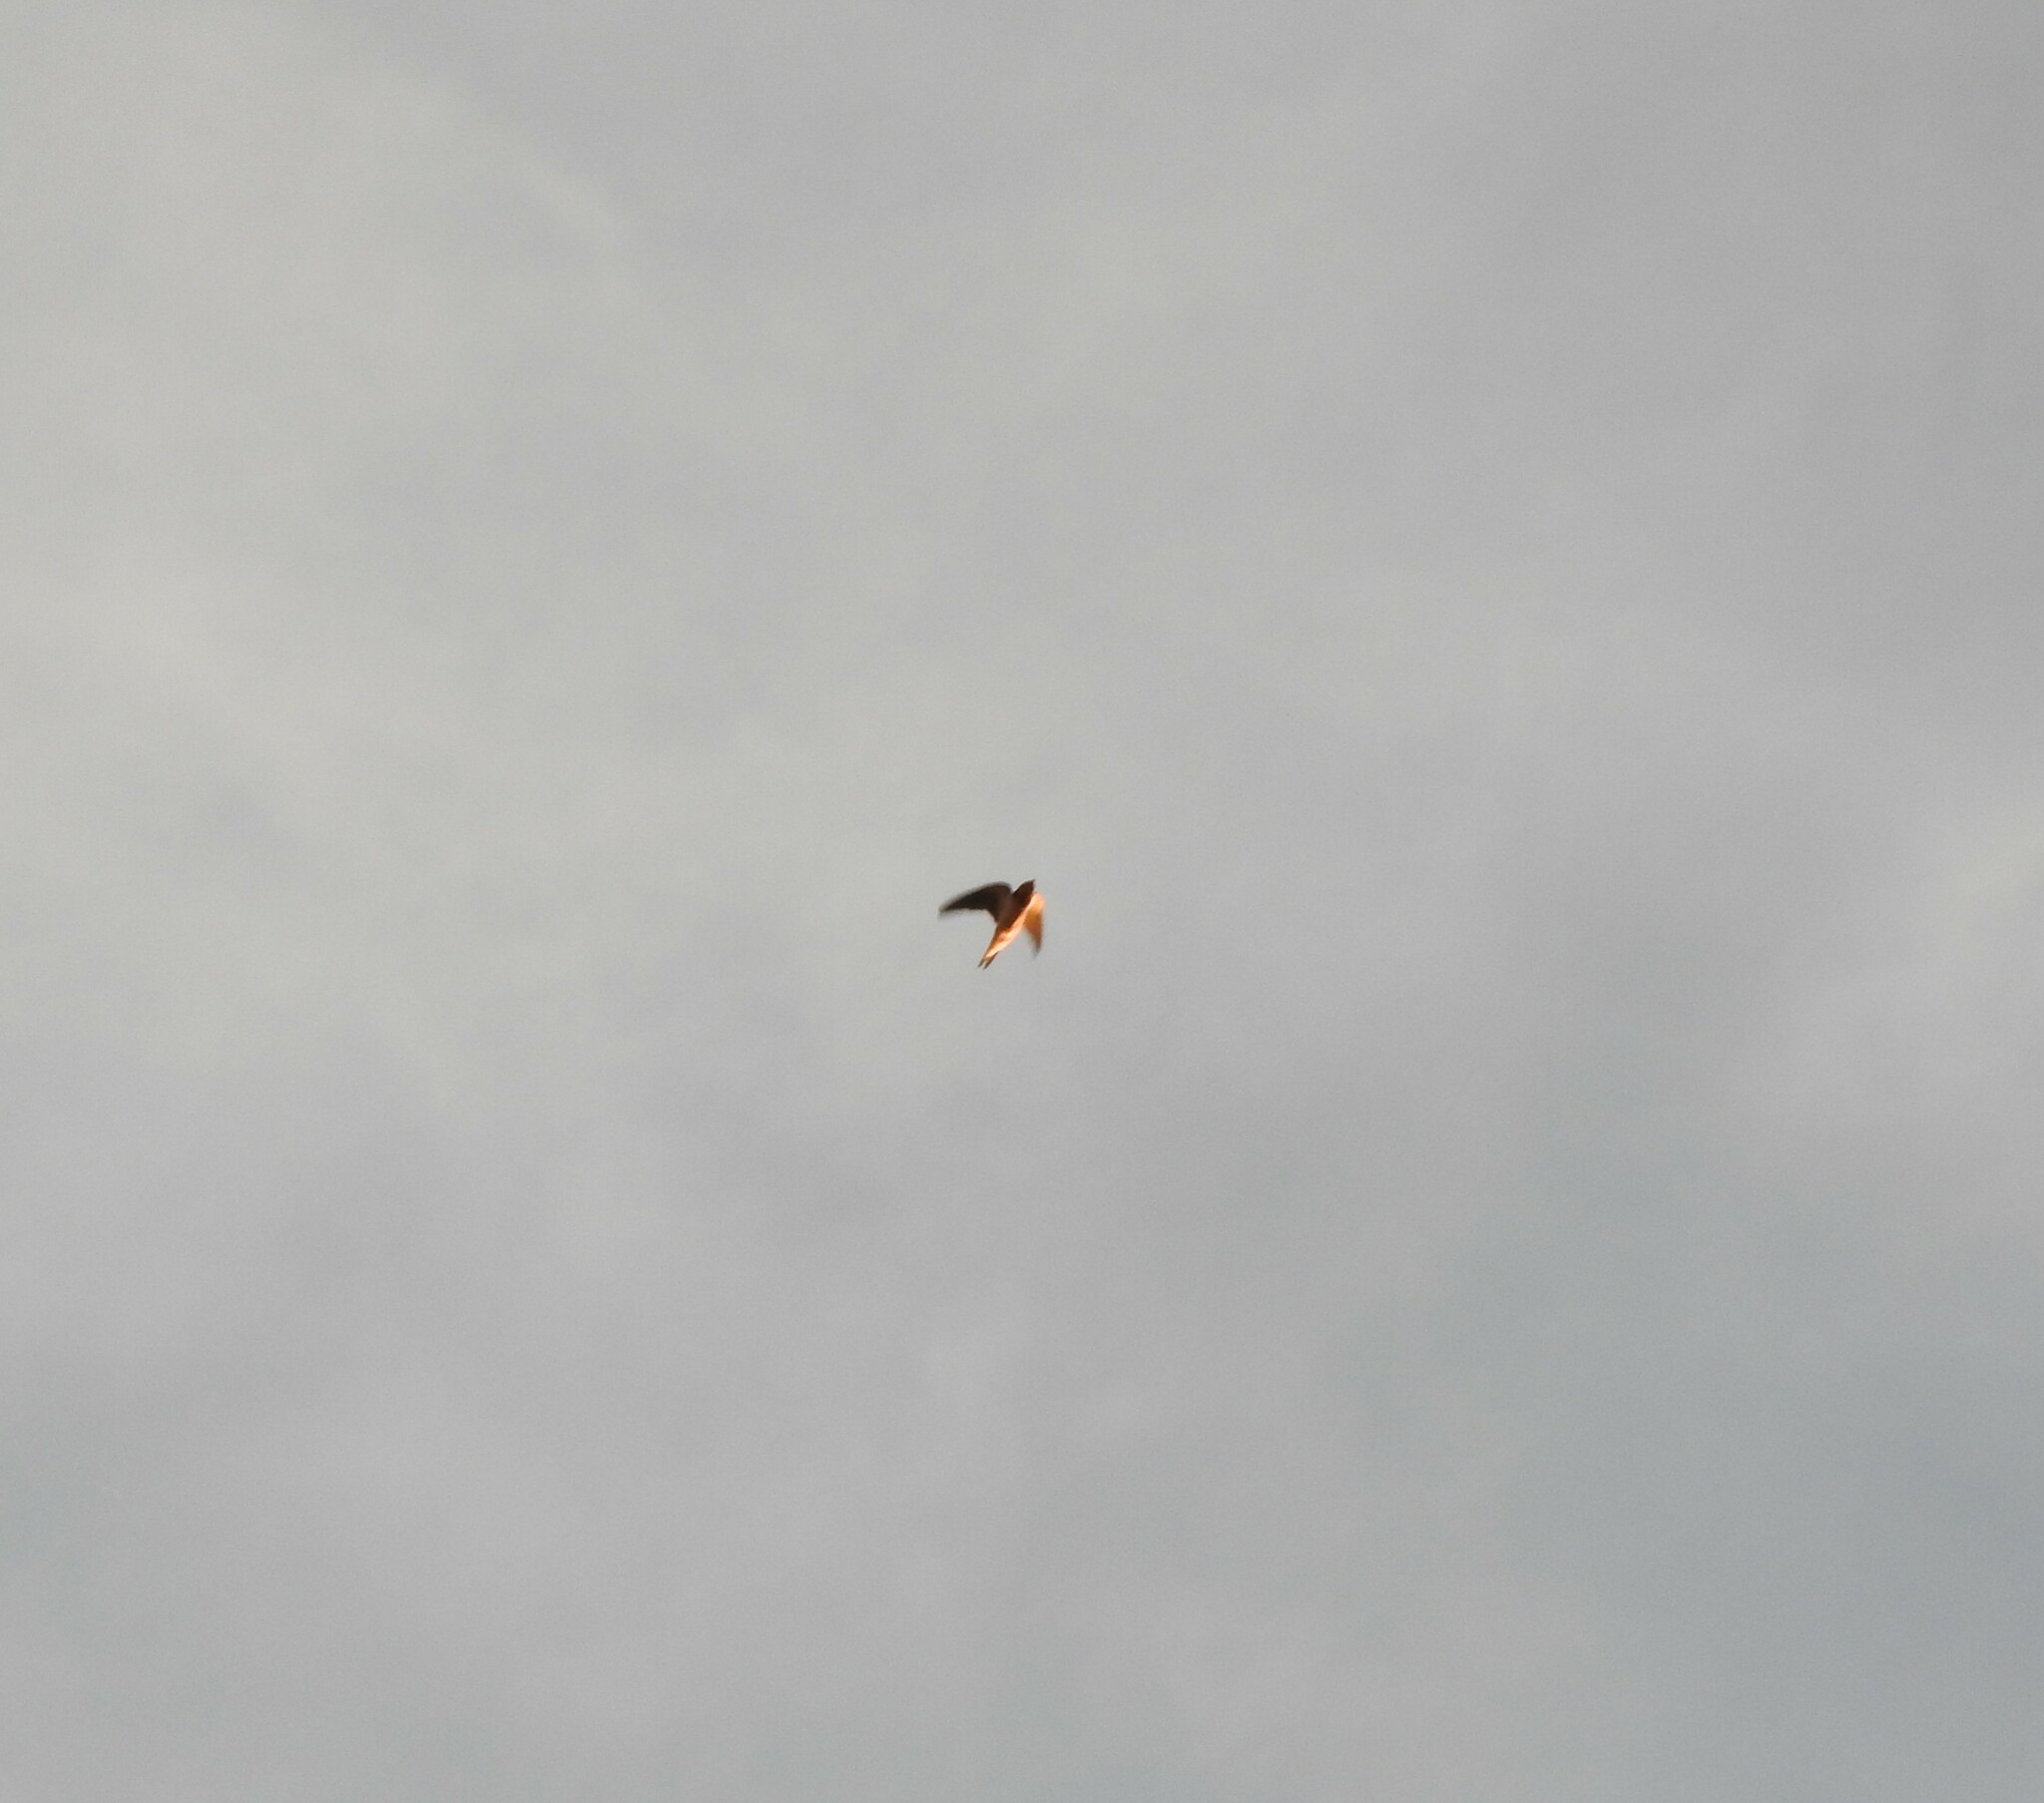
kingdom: Animalia
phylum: Chordata
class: Aves
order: Passeriformes
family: Hirundinidae
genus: Hirundo
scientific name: Hirundo rustica
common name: Barn swallow
